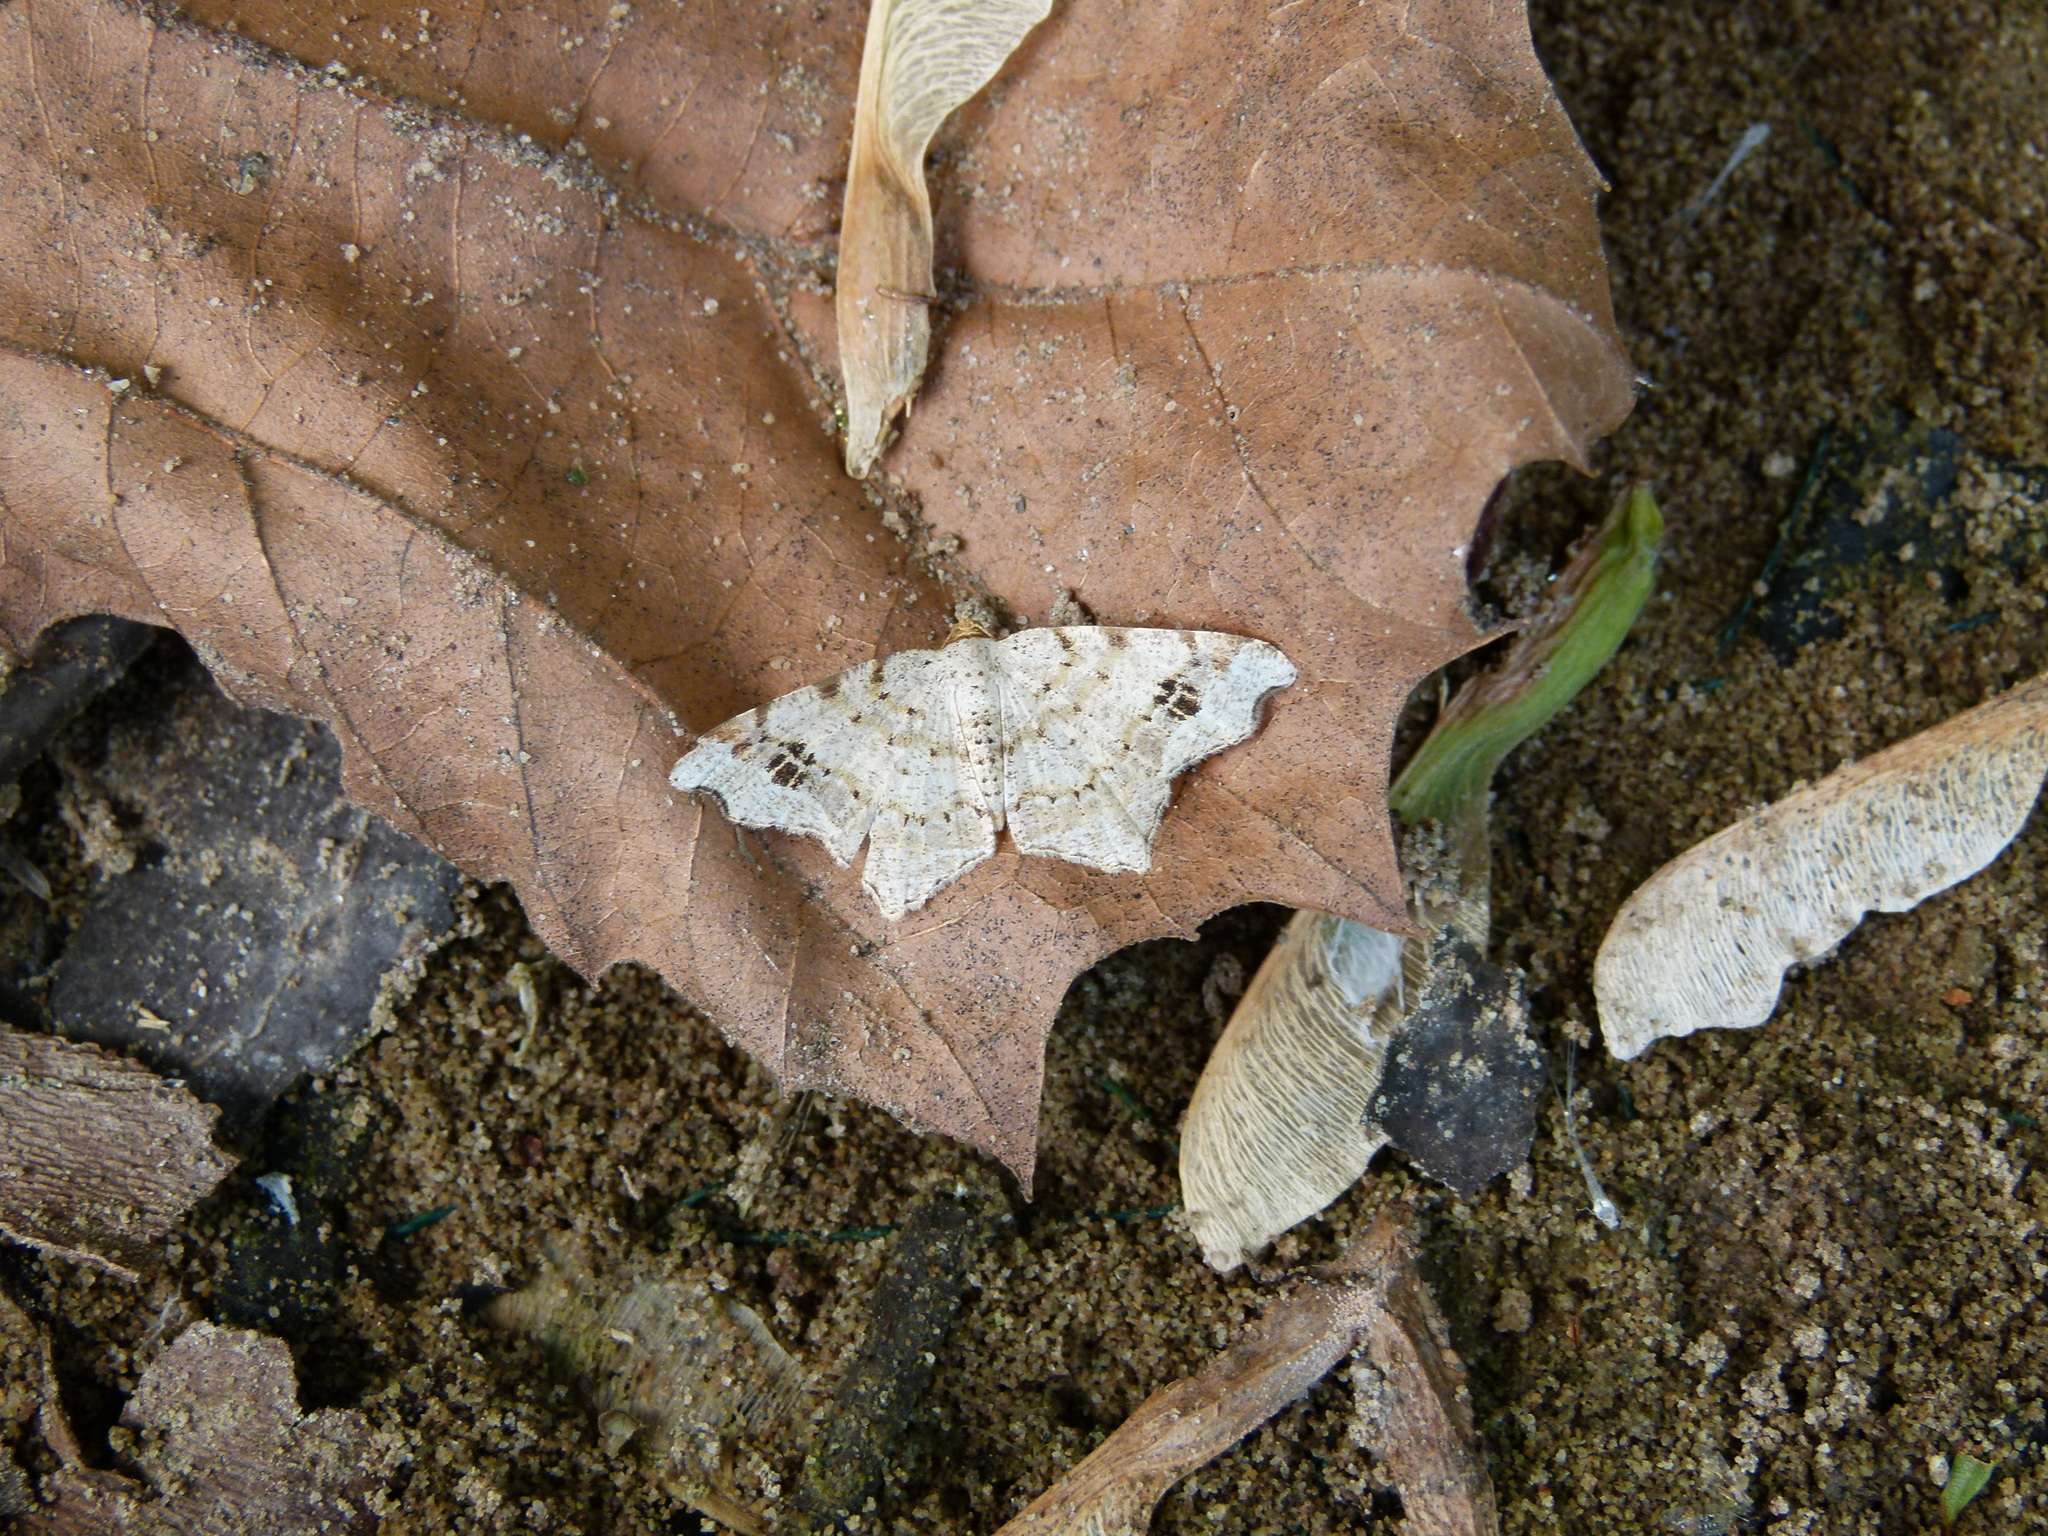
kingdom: Animalia
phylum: Arthropoda
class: Insecta
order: Lepidoptera
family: Geometridae
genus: Macaria
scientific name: Macaria aemulataria
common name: Common angle
